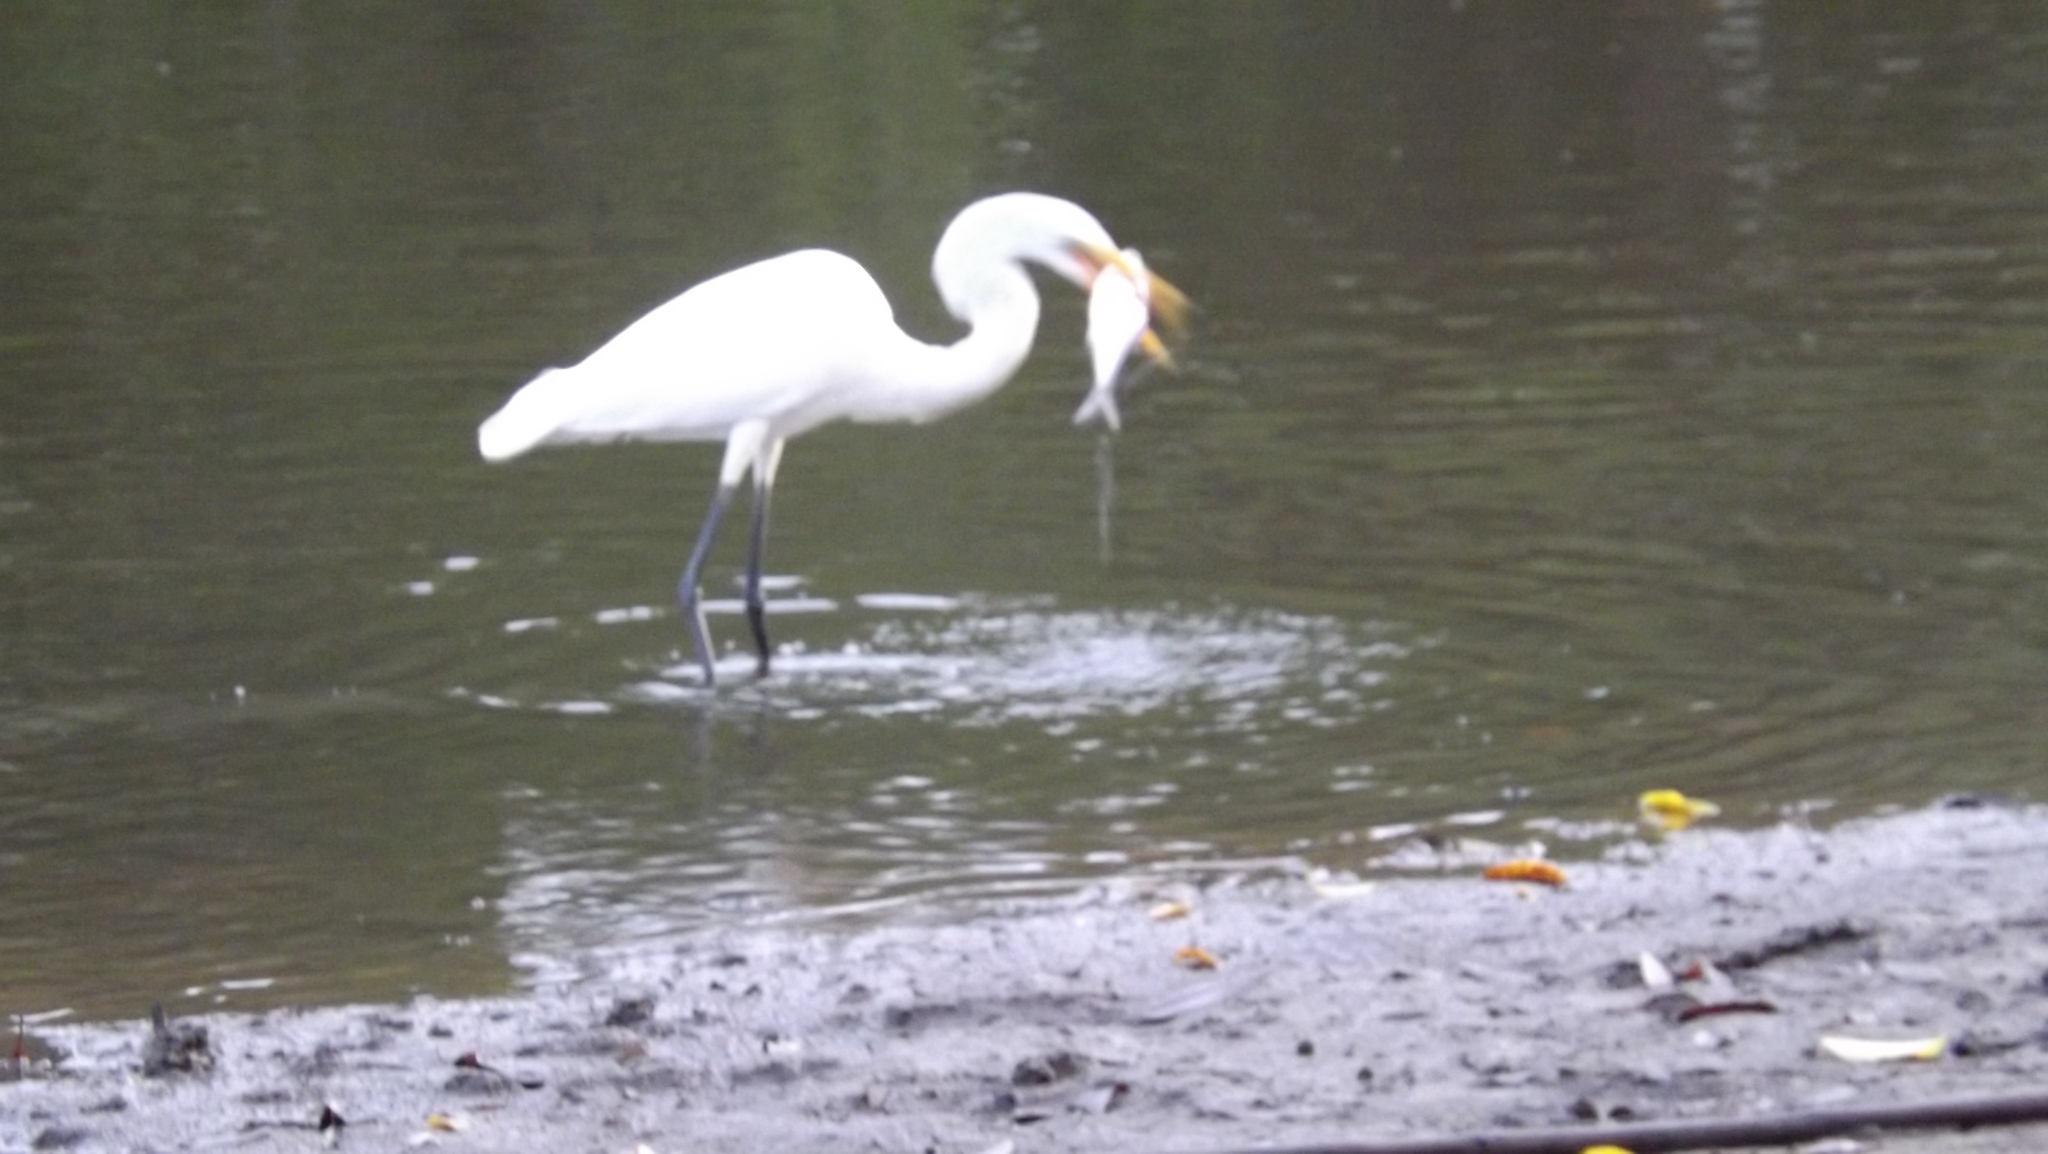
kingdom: Animalia
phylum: Chordata
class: Aves
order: Pelecaniformes
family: Ardeidae
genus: Ardea
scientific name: Ardea alba
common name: Great egret
